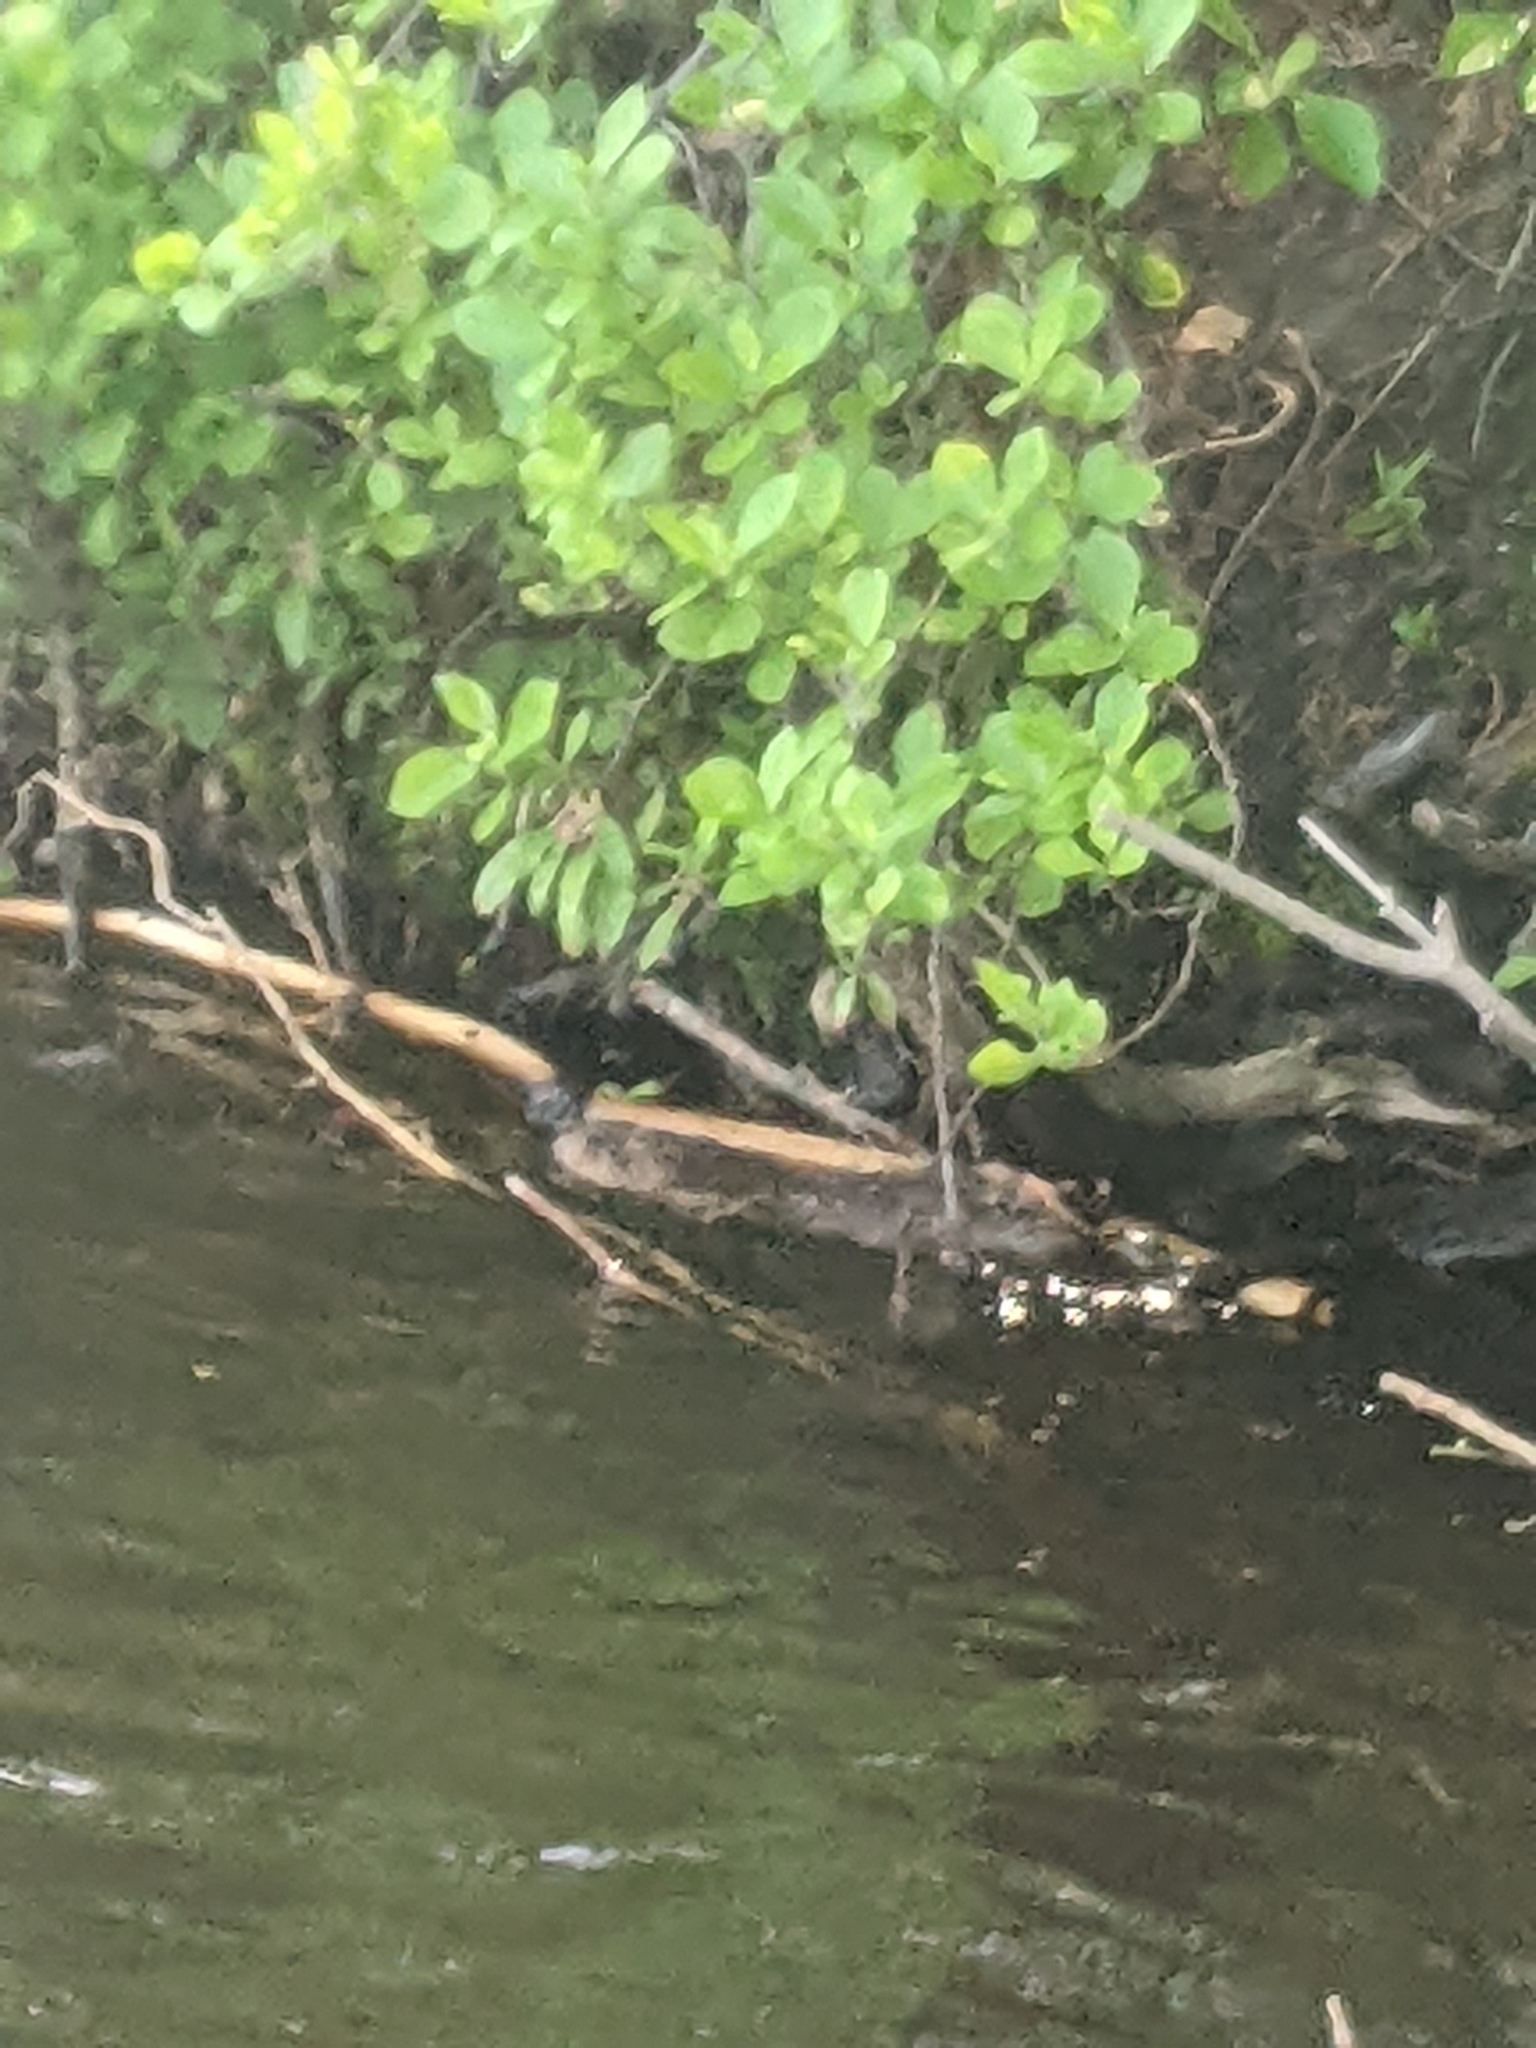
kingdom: Animalia
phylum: Chordata
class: Mammalia
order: Rodentia
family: Cricetidae
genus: Ondatra
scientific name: Ondatra zibethicus
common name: Muskrat
